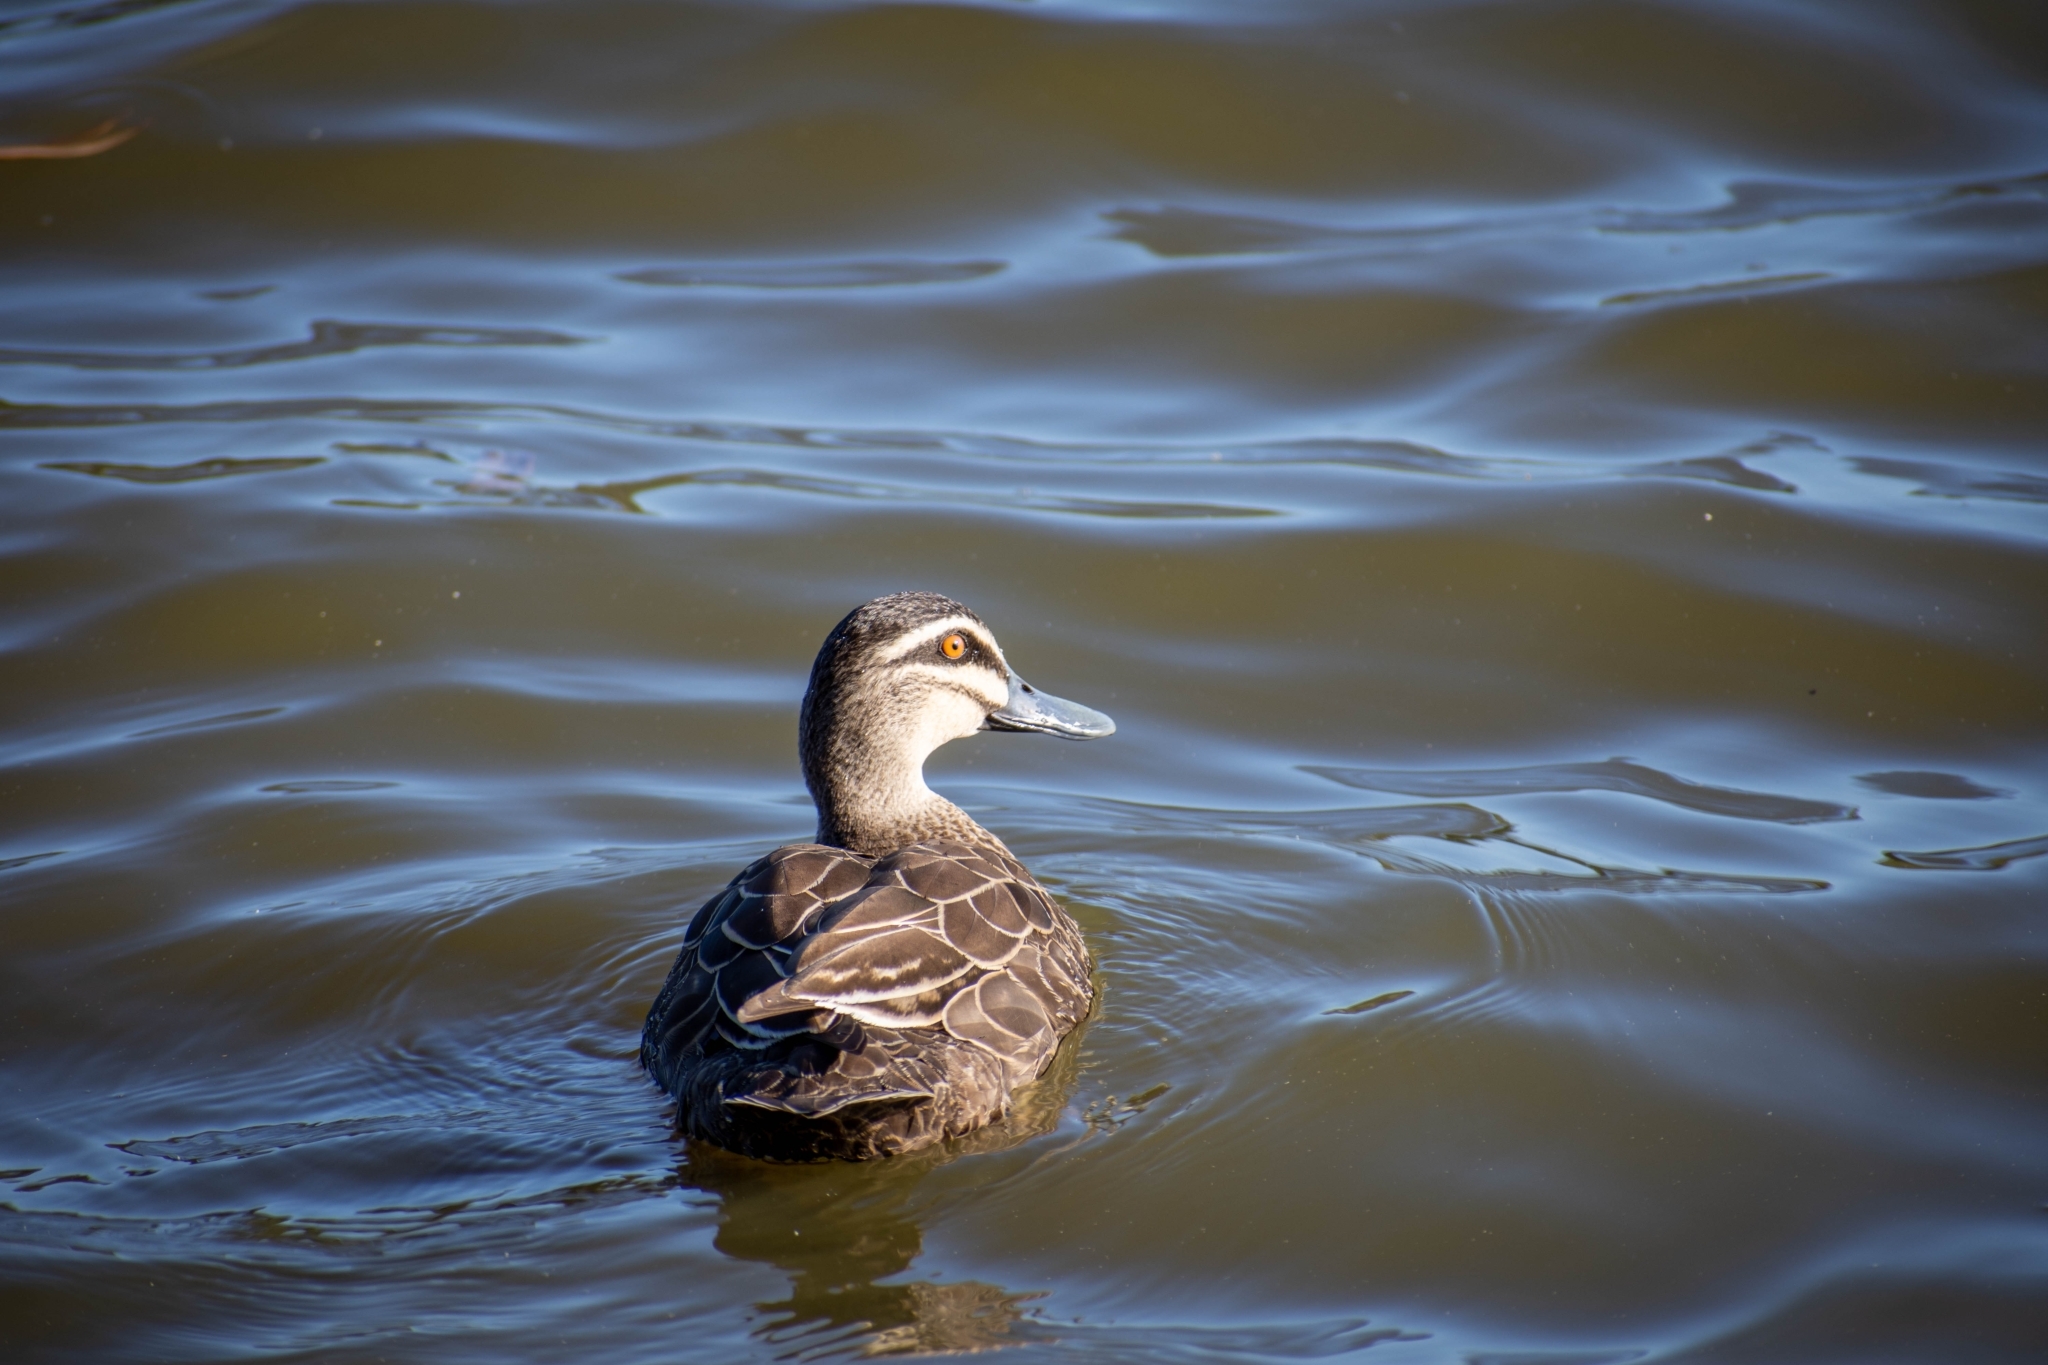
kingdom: Animalia
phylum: Chordata
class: Aves
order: Anseriformes
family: Anatidae
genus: Anas
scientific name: Anas superciliosa
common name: Pacific black duck
